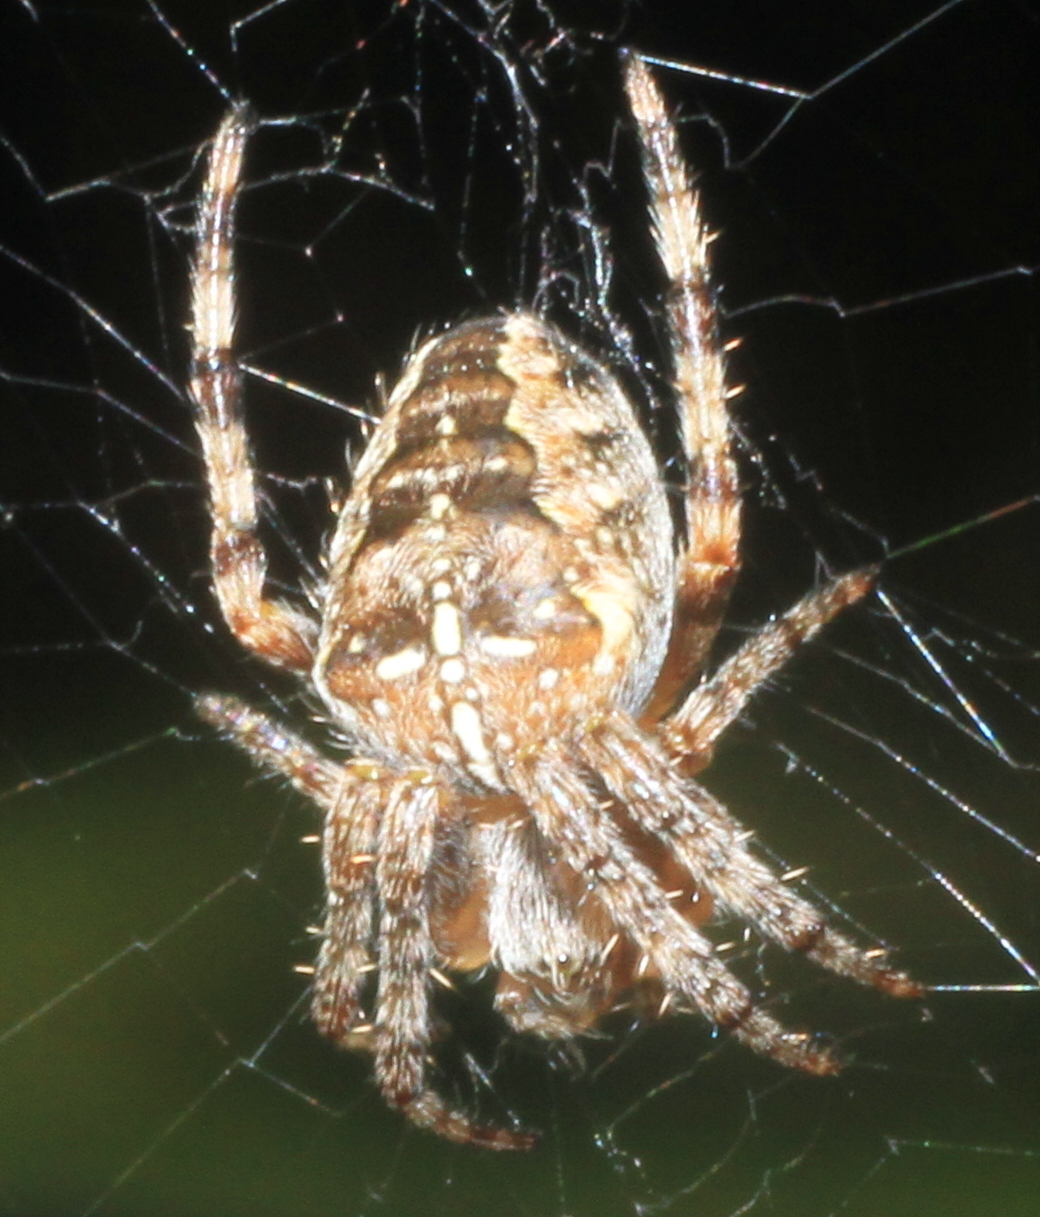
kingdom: Animalia
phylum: Arthropoda
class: Arachnida
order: Araneae
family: Araneidae
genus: Araneus
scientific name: Araneus diadematus
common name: Cross orbweaver
